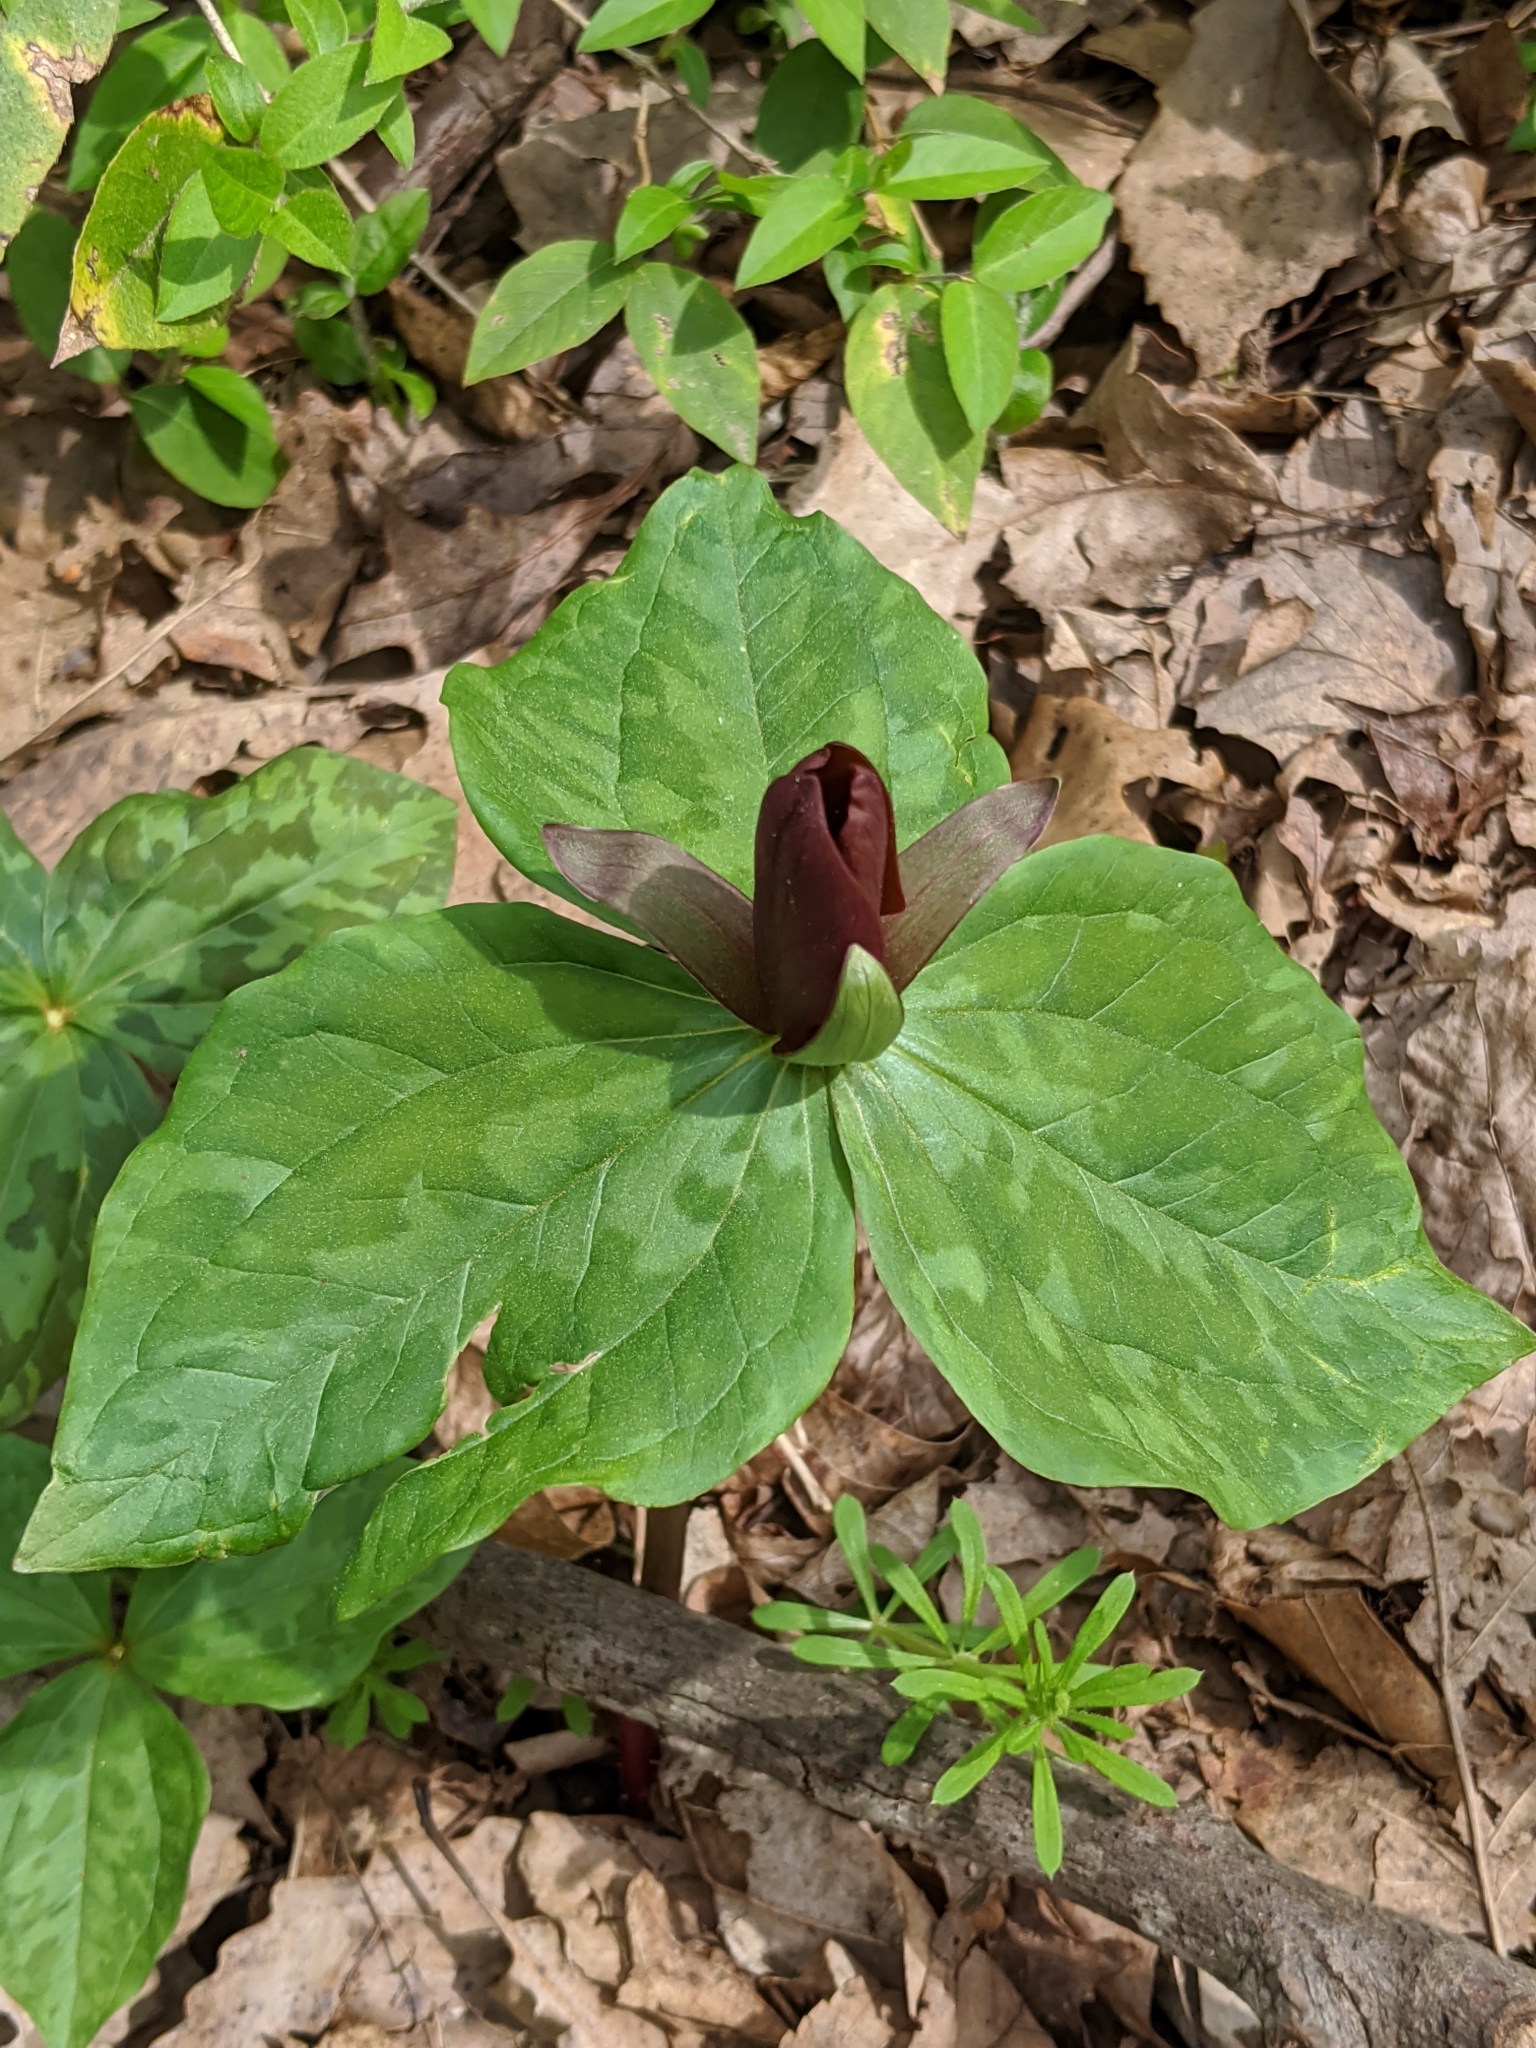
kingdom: Plantae
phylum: Tracheophyta
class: Liliopsida
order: Liliales
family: Melanthiaceae
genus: Trillium
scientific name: Trillium cuneatum
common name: Cuneate trillium
